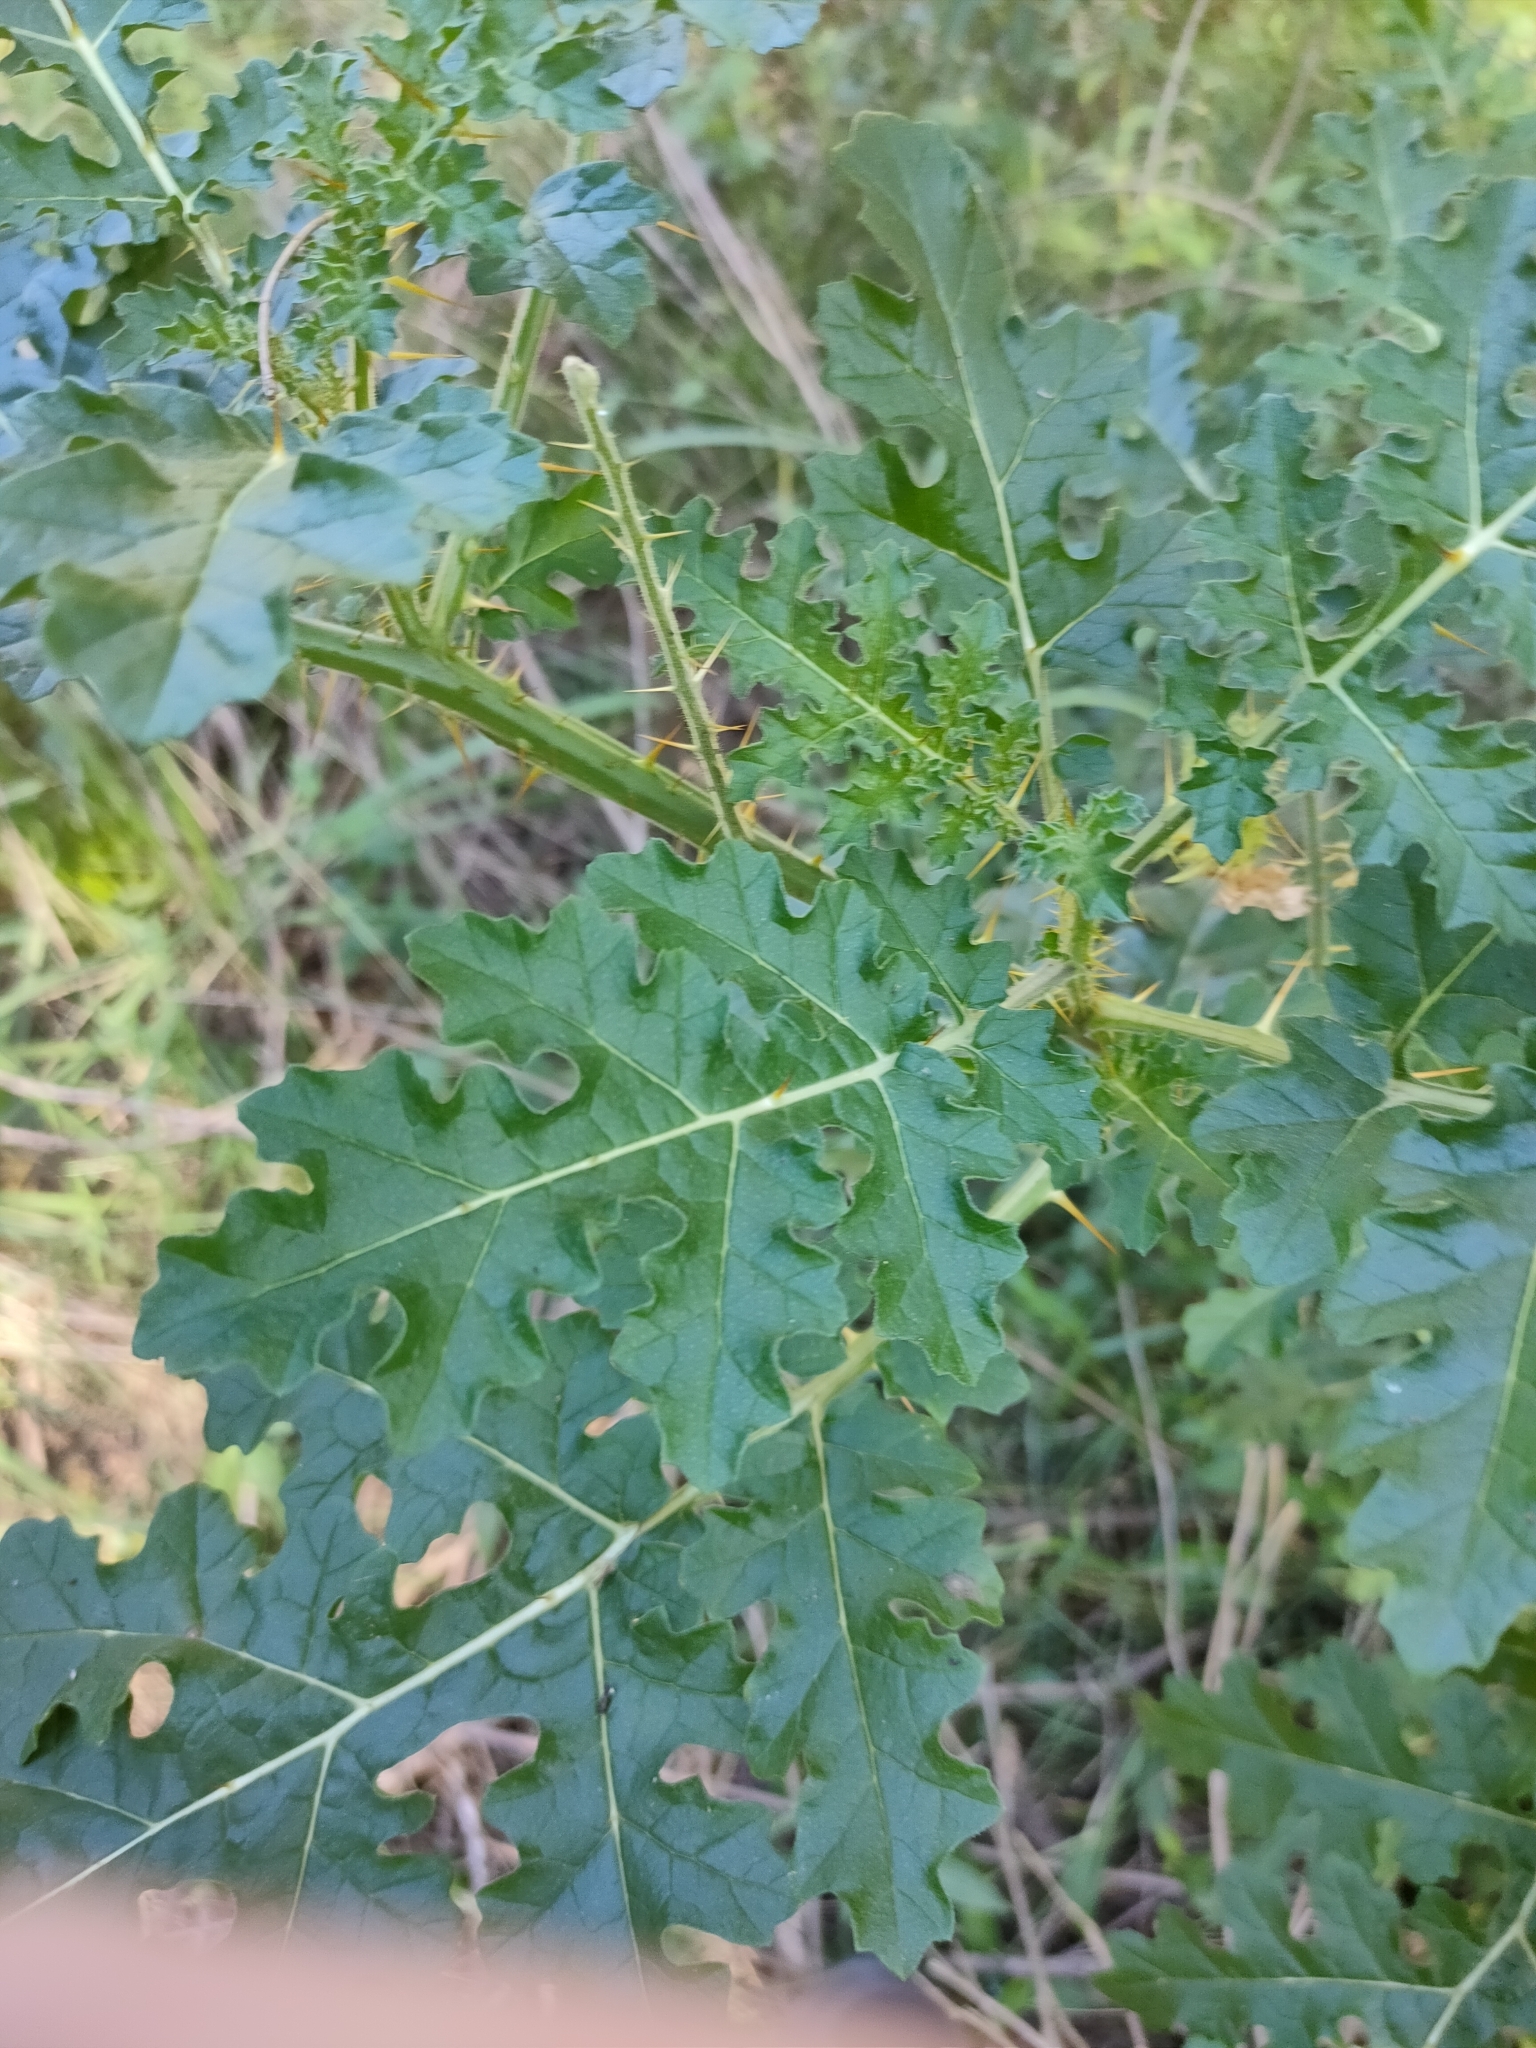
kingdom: Plantae
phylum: Tracheophyta
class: Magnoliopsida
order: Solanales
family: Solanaceae
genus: Solanum
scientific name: Solanum sisymbriifolium
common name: Red buffalo-bur
